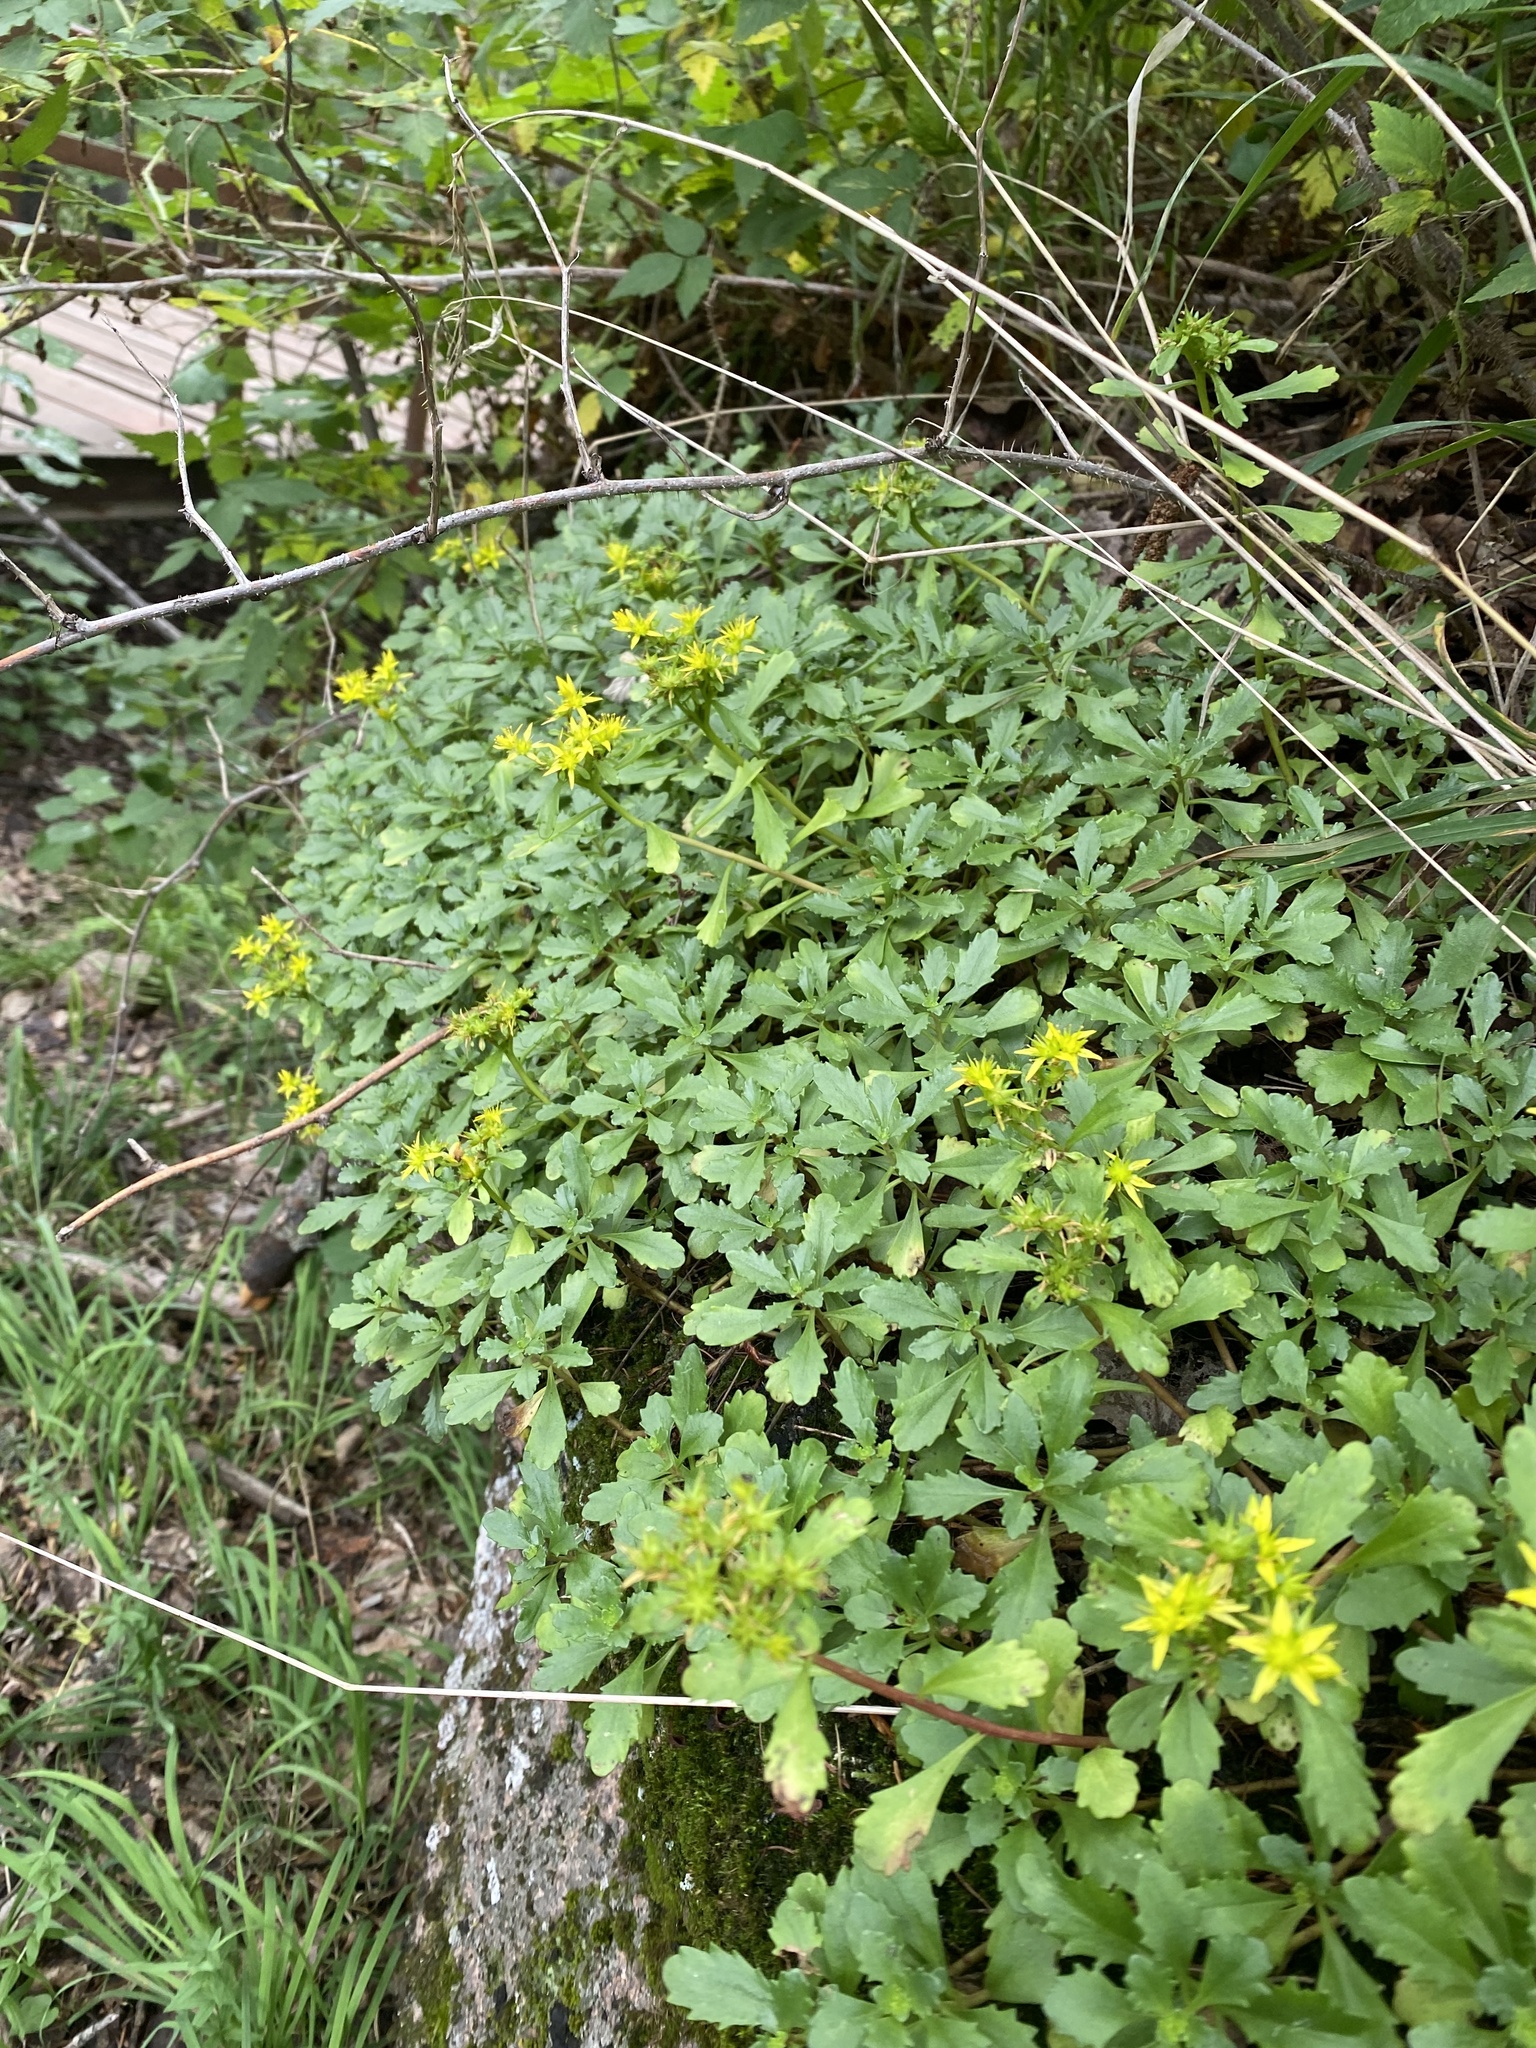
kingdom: Plantae
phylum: Tracheophyta
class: Magnoliopsida
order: Saxifragales
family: Crassulaceae
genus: Phedimus
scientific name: Phedimus hybridus
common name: Hybrid stonecrop
